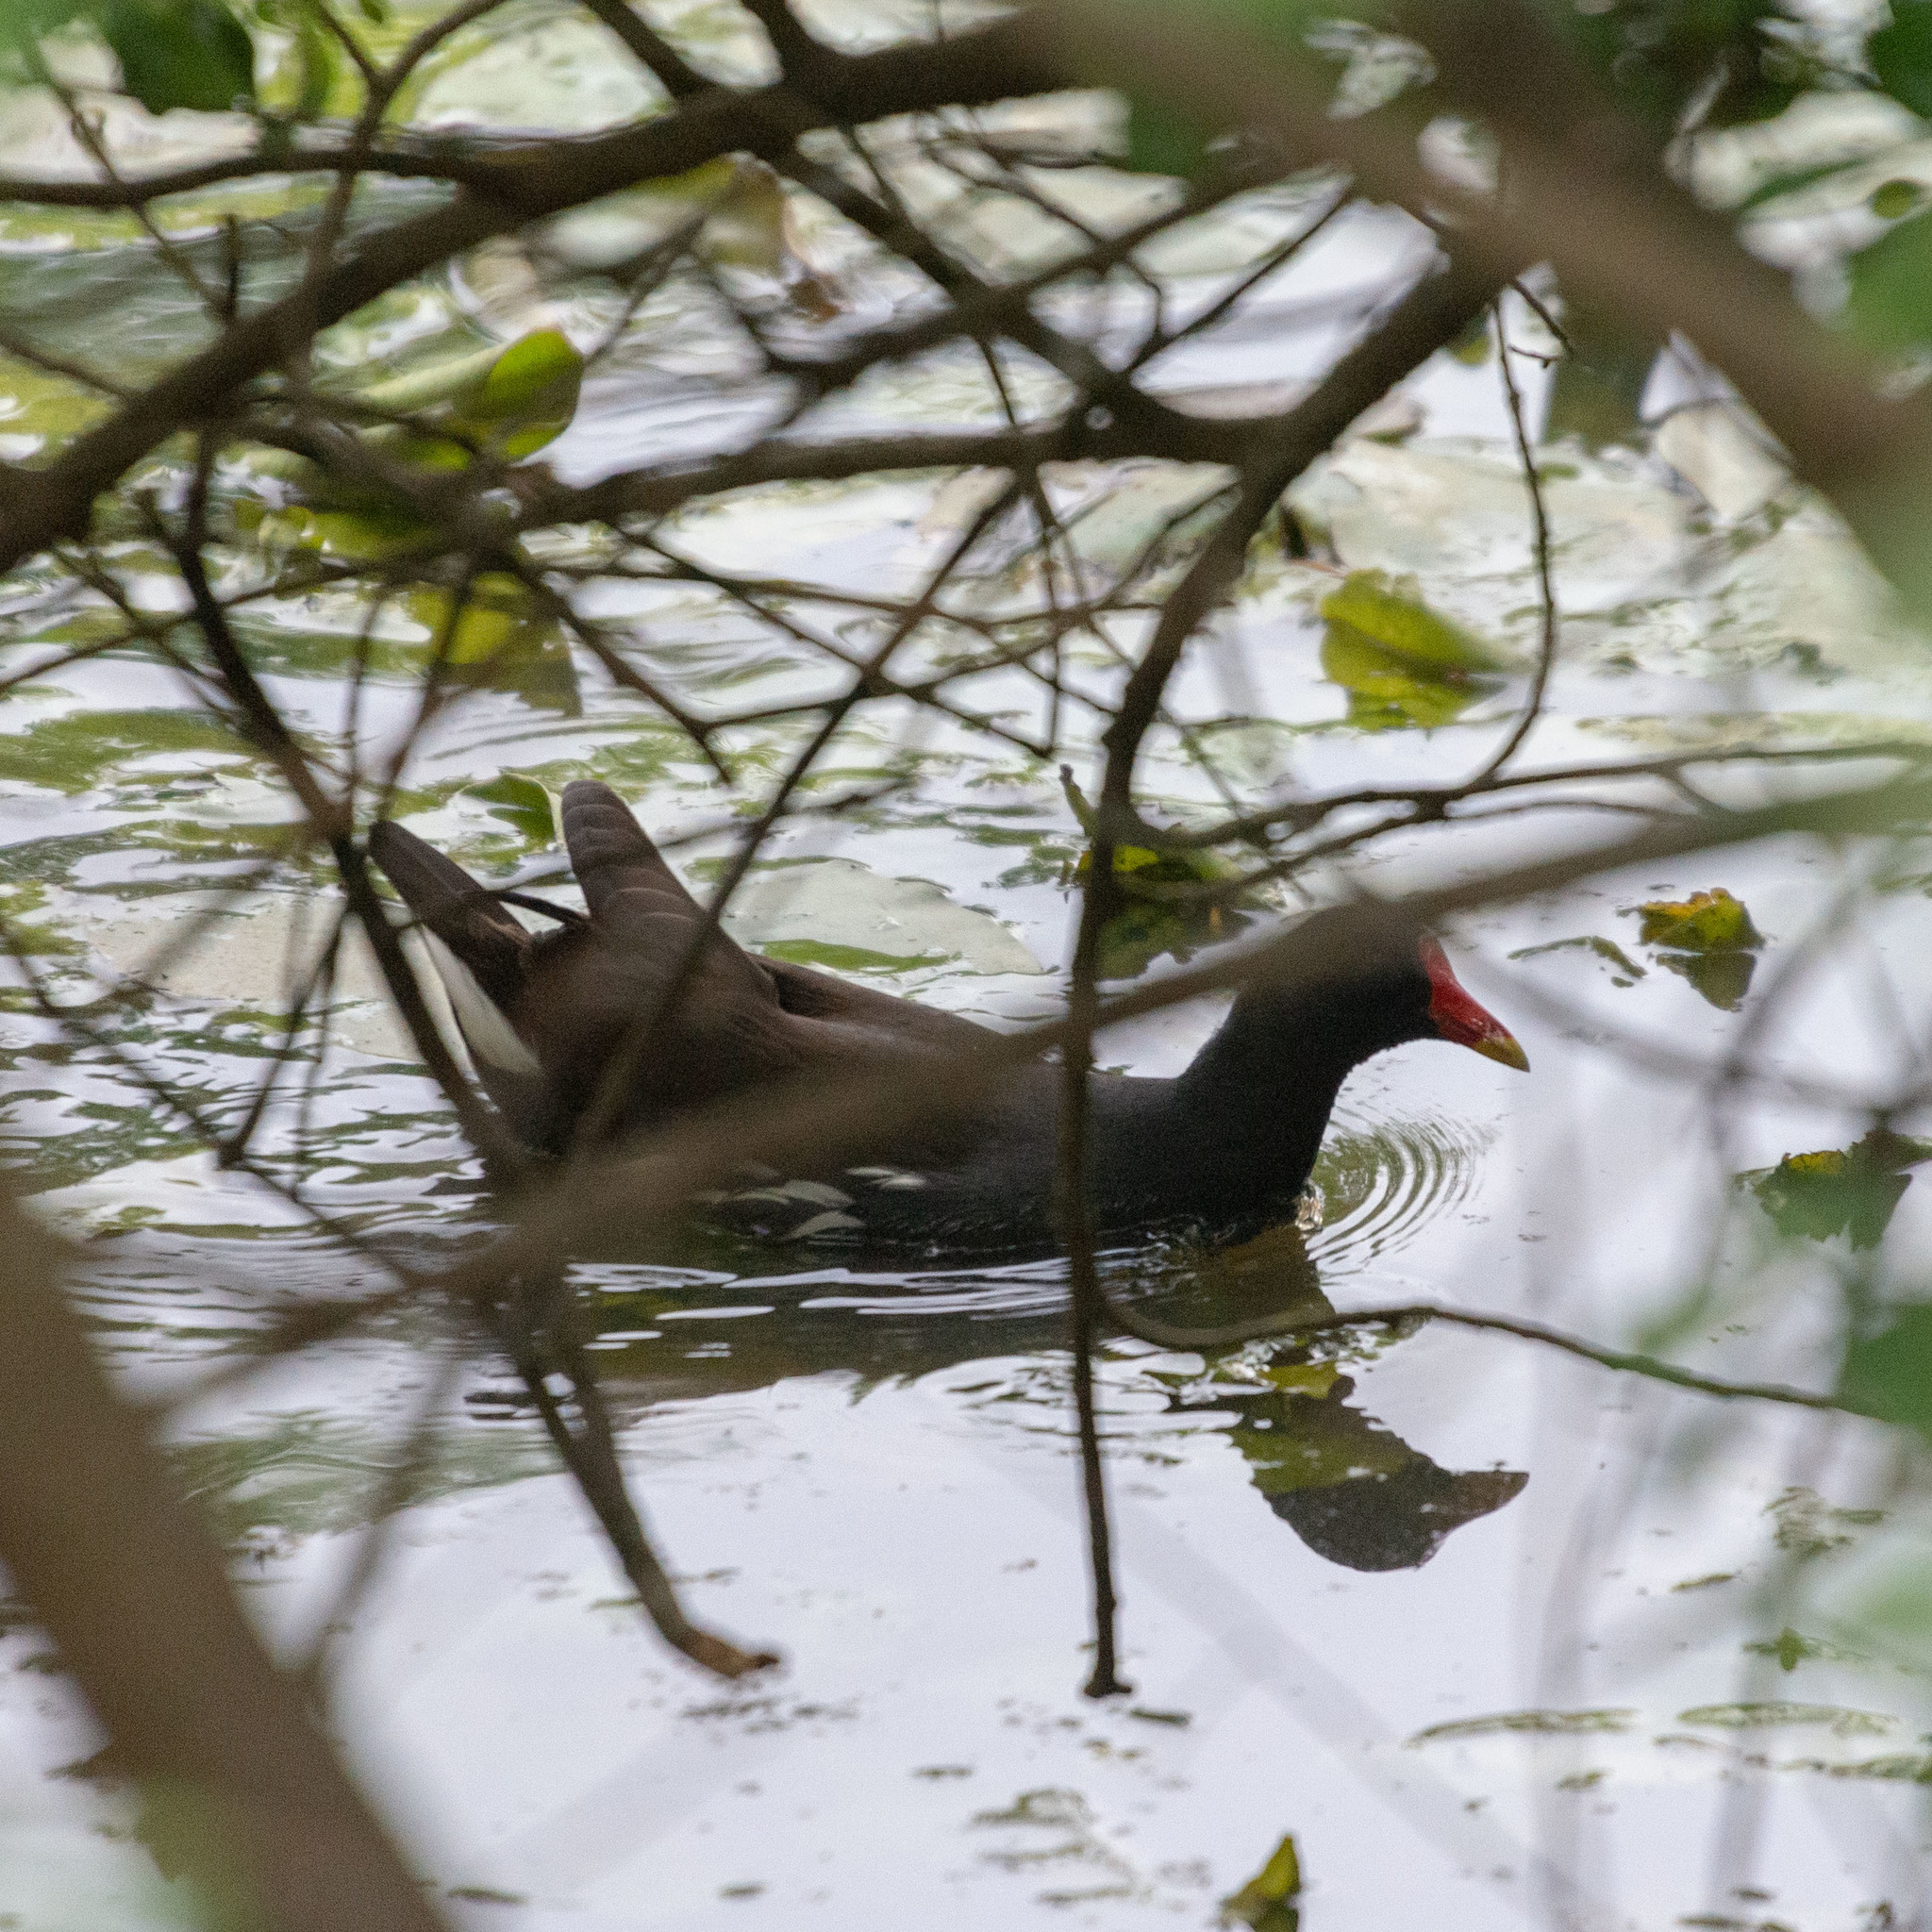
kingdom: Animalia
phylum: Chordata
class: Aves
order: Gruiformes
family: Rallidae
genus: Gallinula
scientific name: Gallinula chloropus
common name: Common moorhen
